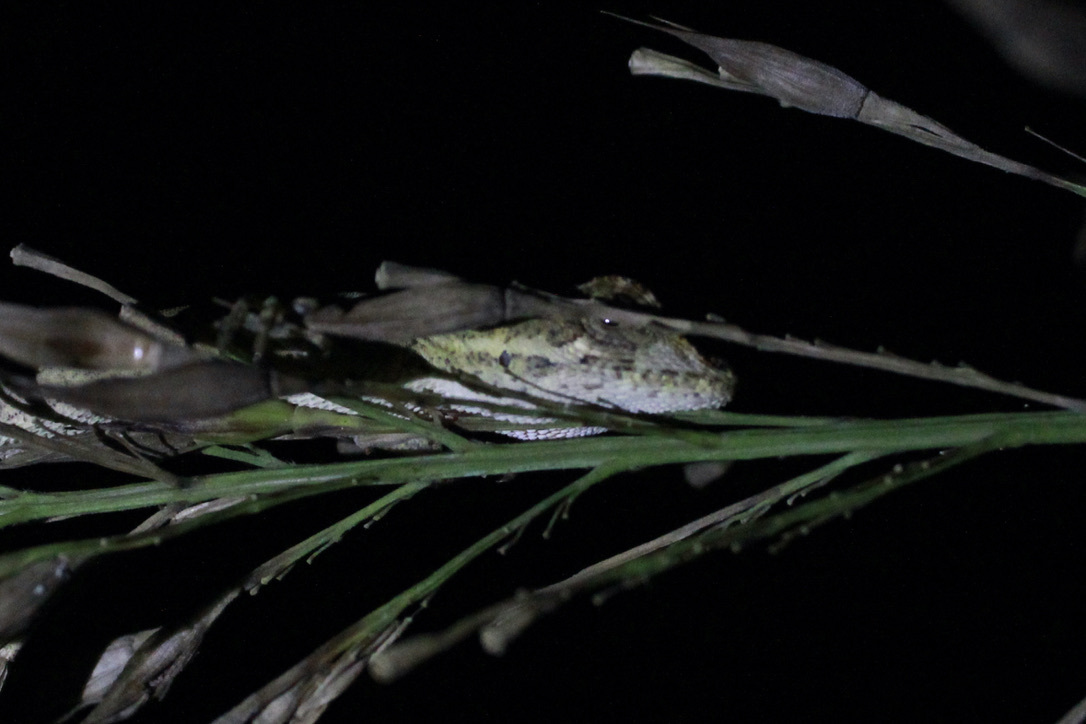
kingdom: Animalia
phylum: Chordata
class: Squamata
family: Dactyloidae
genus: Anolis
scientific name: Anolis planiceps
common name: Goldenscale anole
